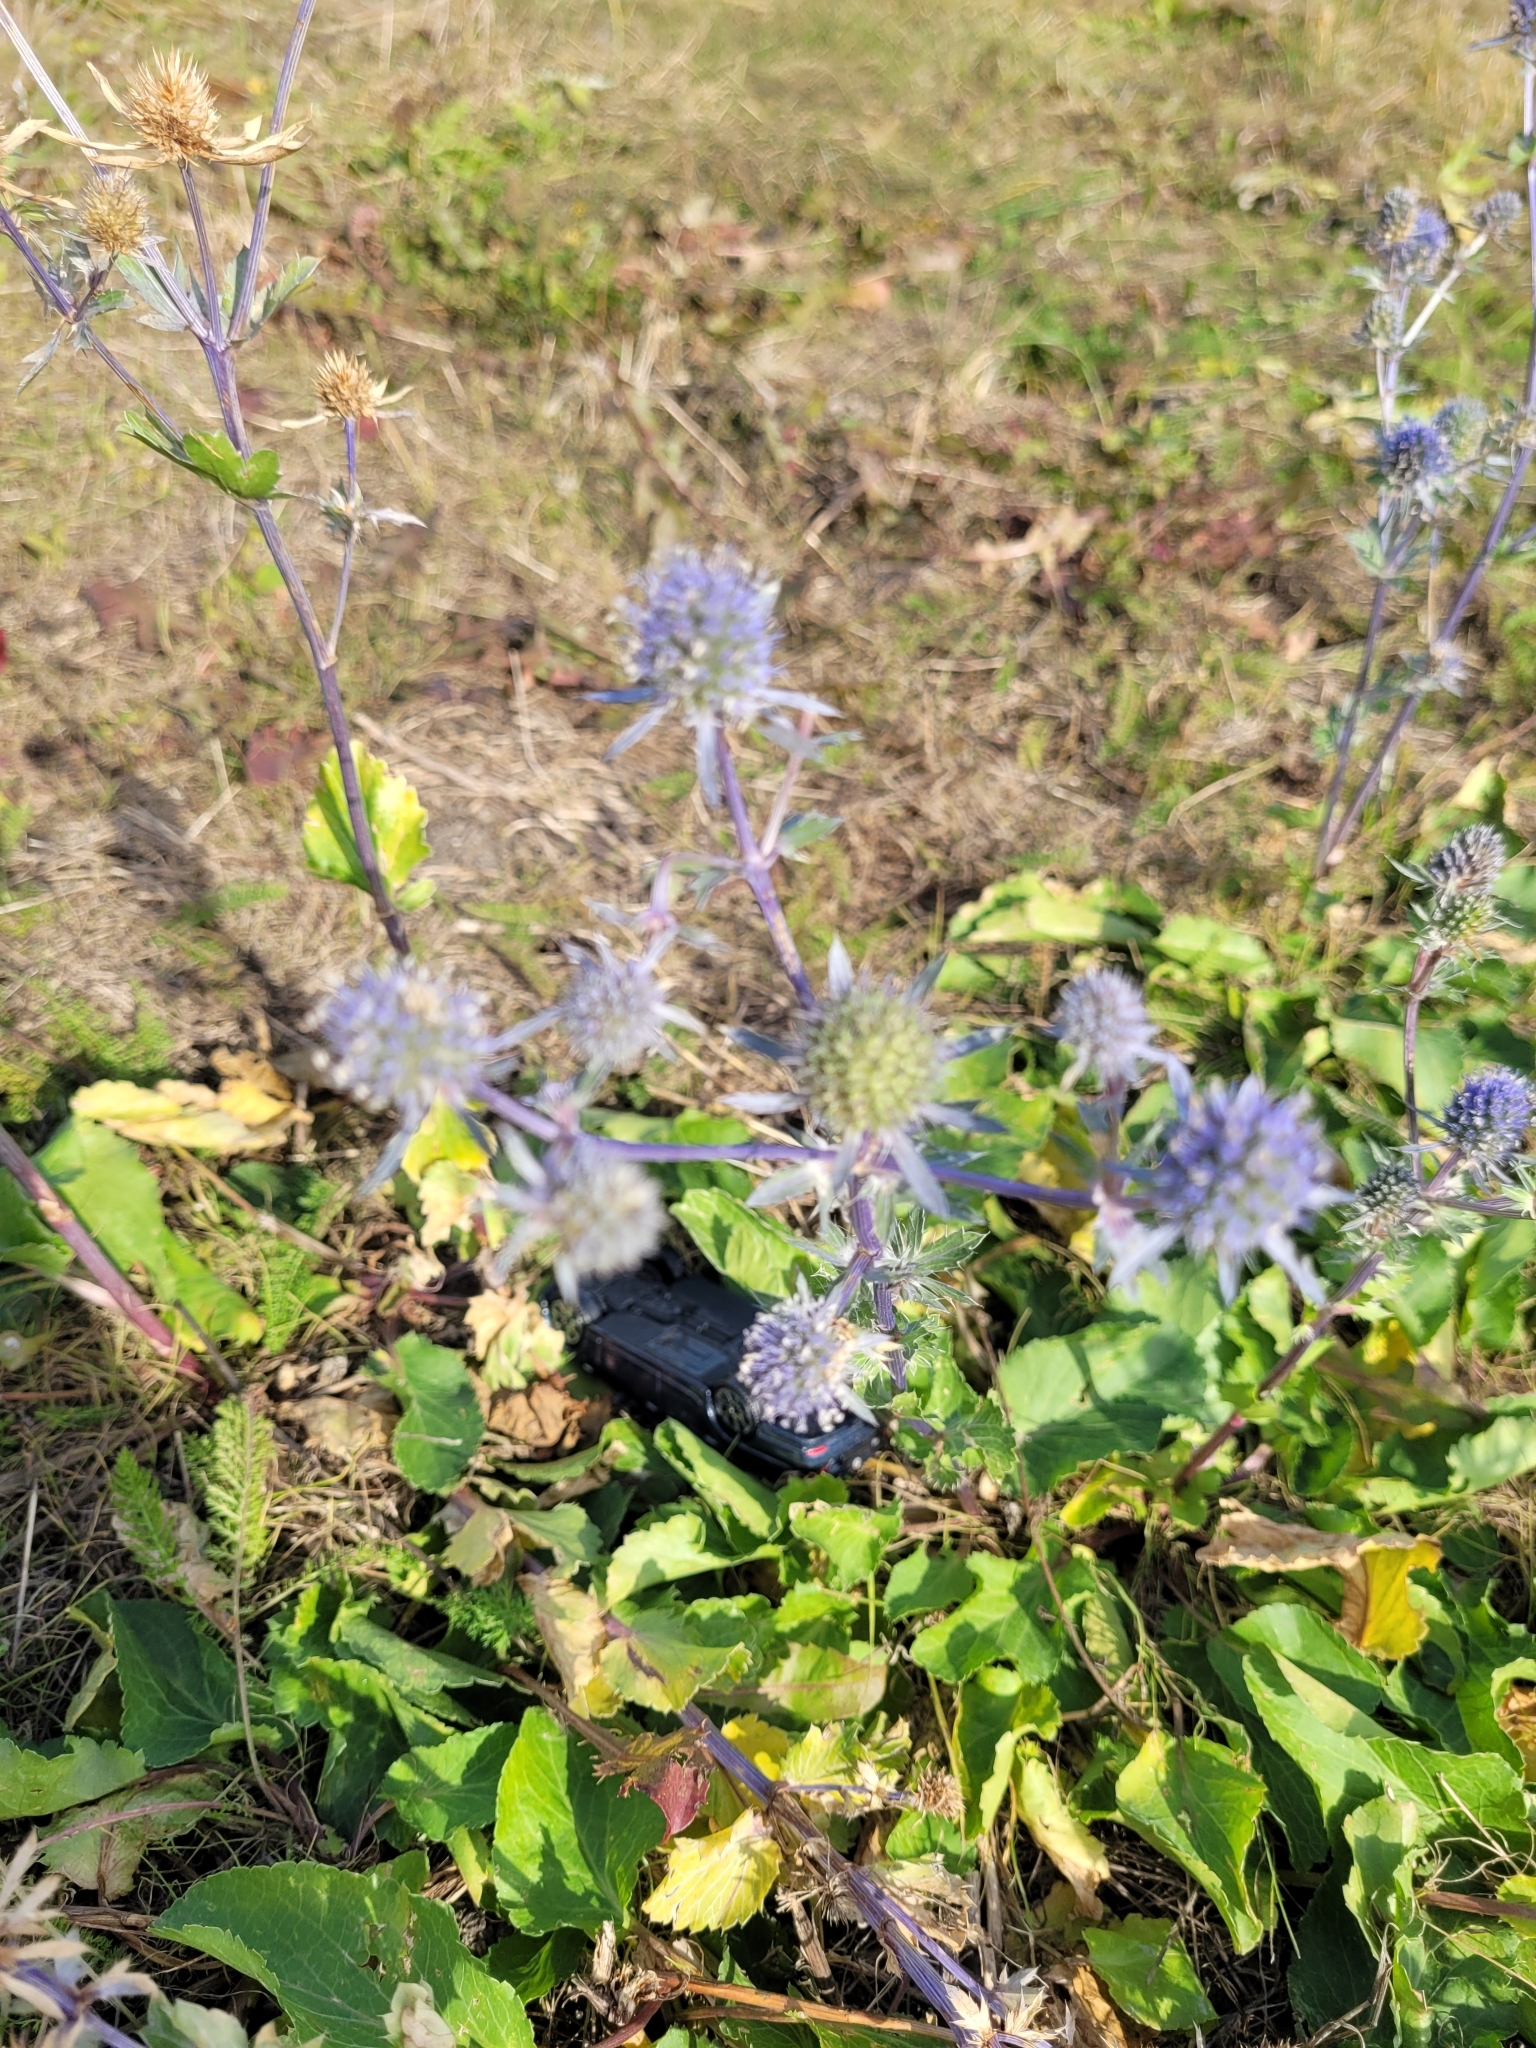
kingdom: Plantae
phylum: Tracheophyta
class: Magnoliopsida
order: Apiales
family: Apiaceae
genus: Eryngium
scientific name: Eryngium planum
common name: Blue eryngo
